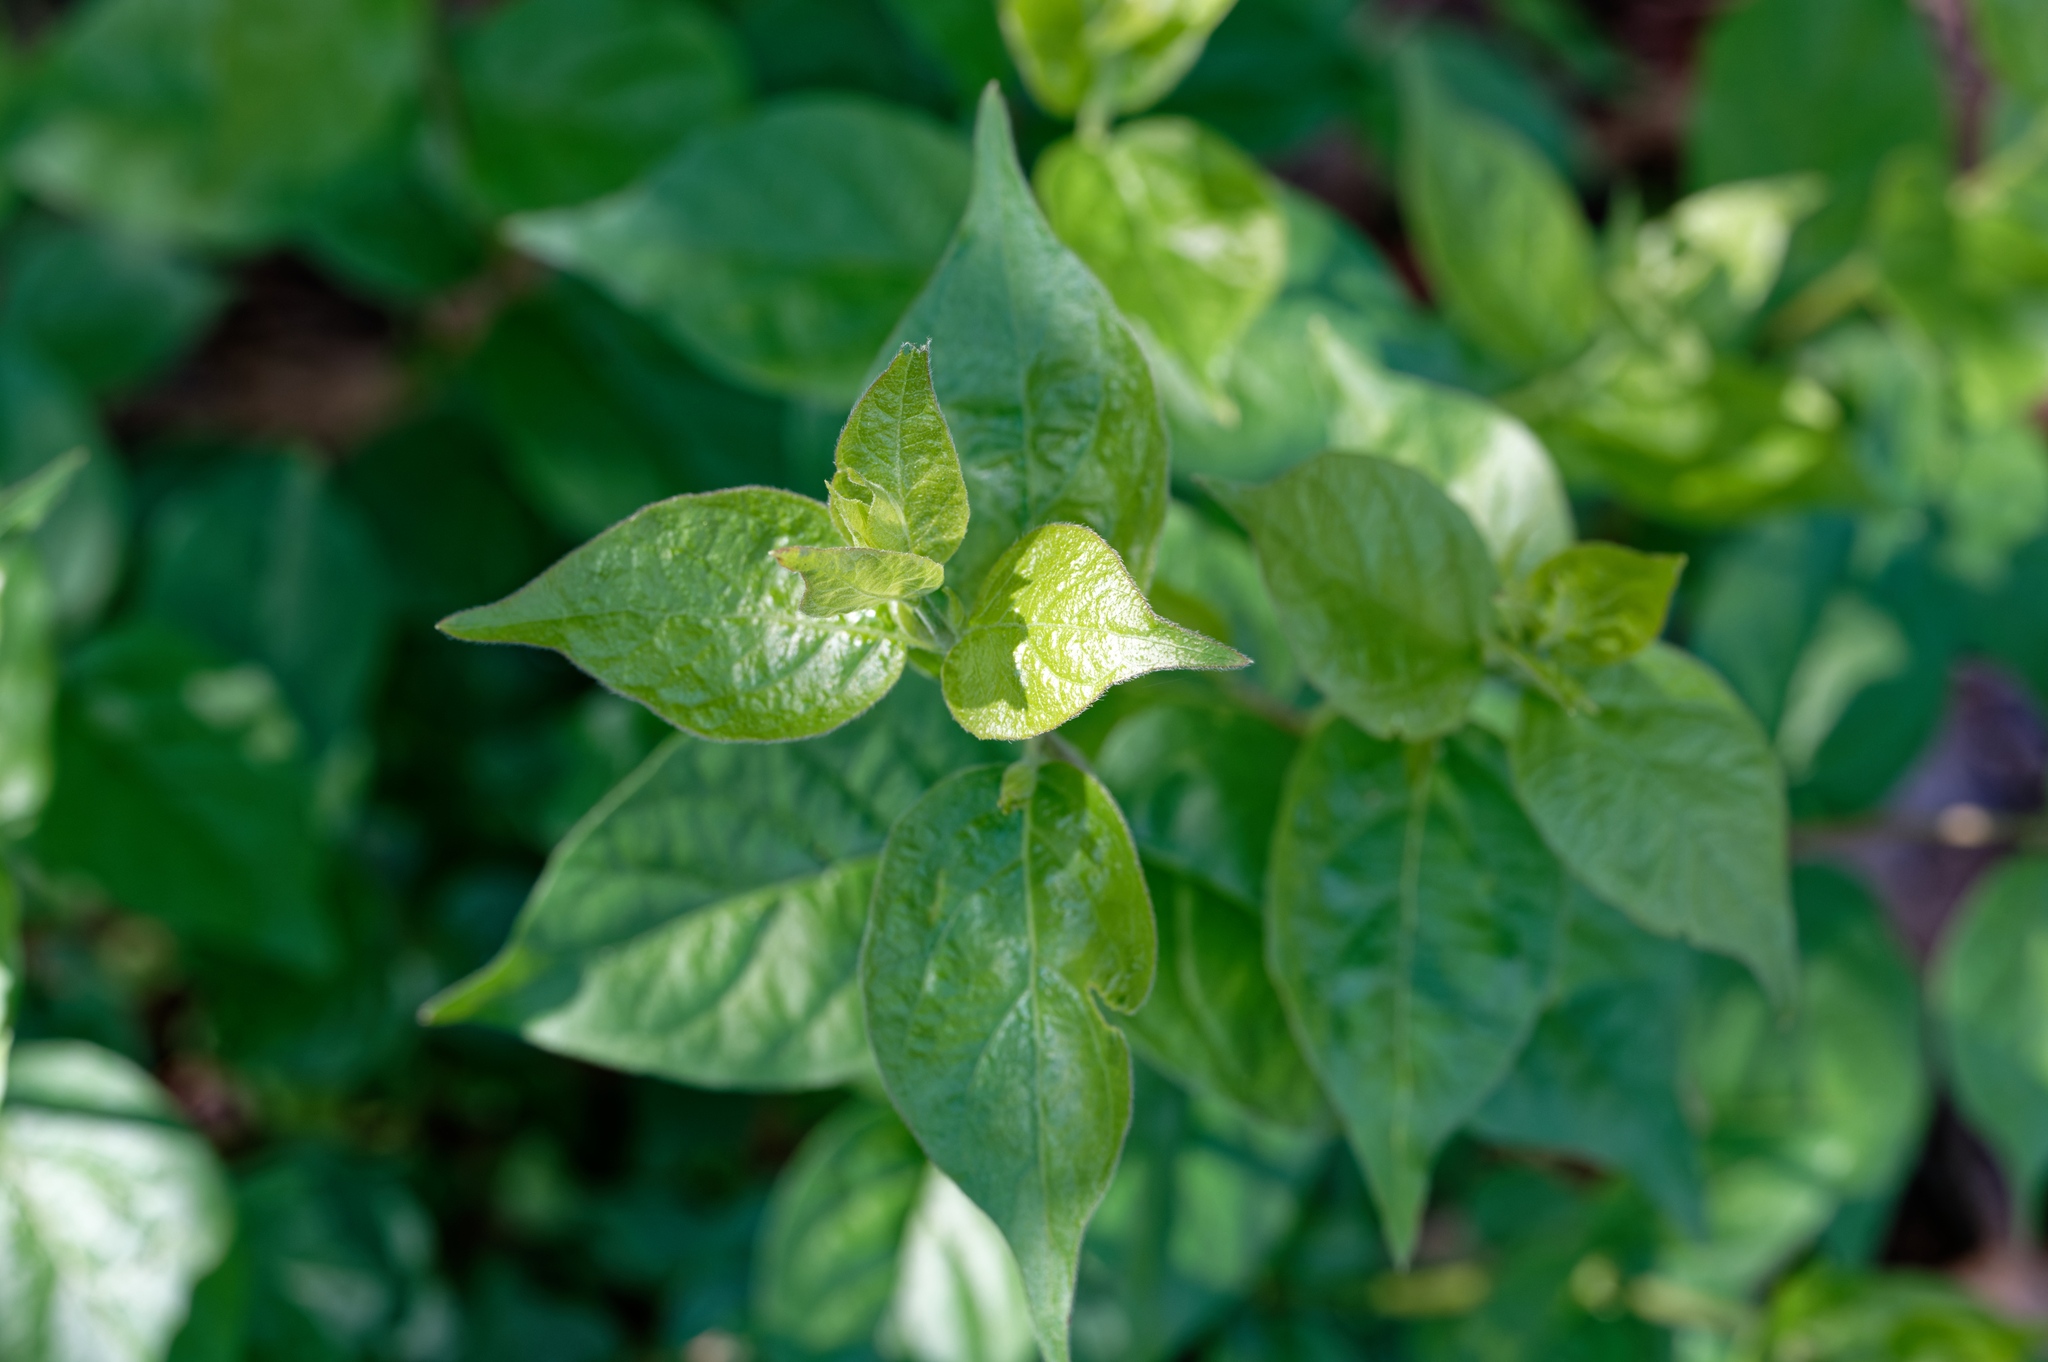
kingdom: Plantae
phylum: Tracheophyta
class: Magnoliopsida
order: Dipsacales
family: Caprifoliaceae
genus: Lonicera
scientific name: Lonicera maackii
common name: Amur honeysuckle
